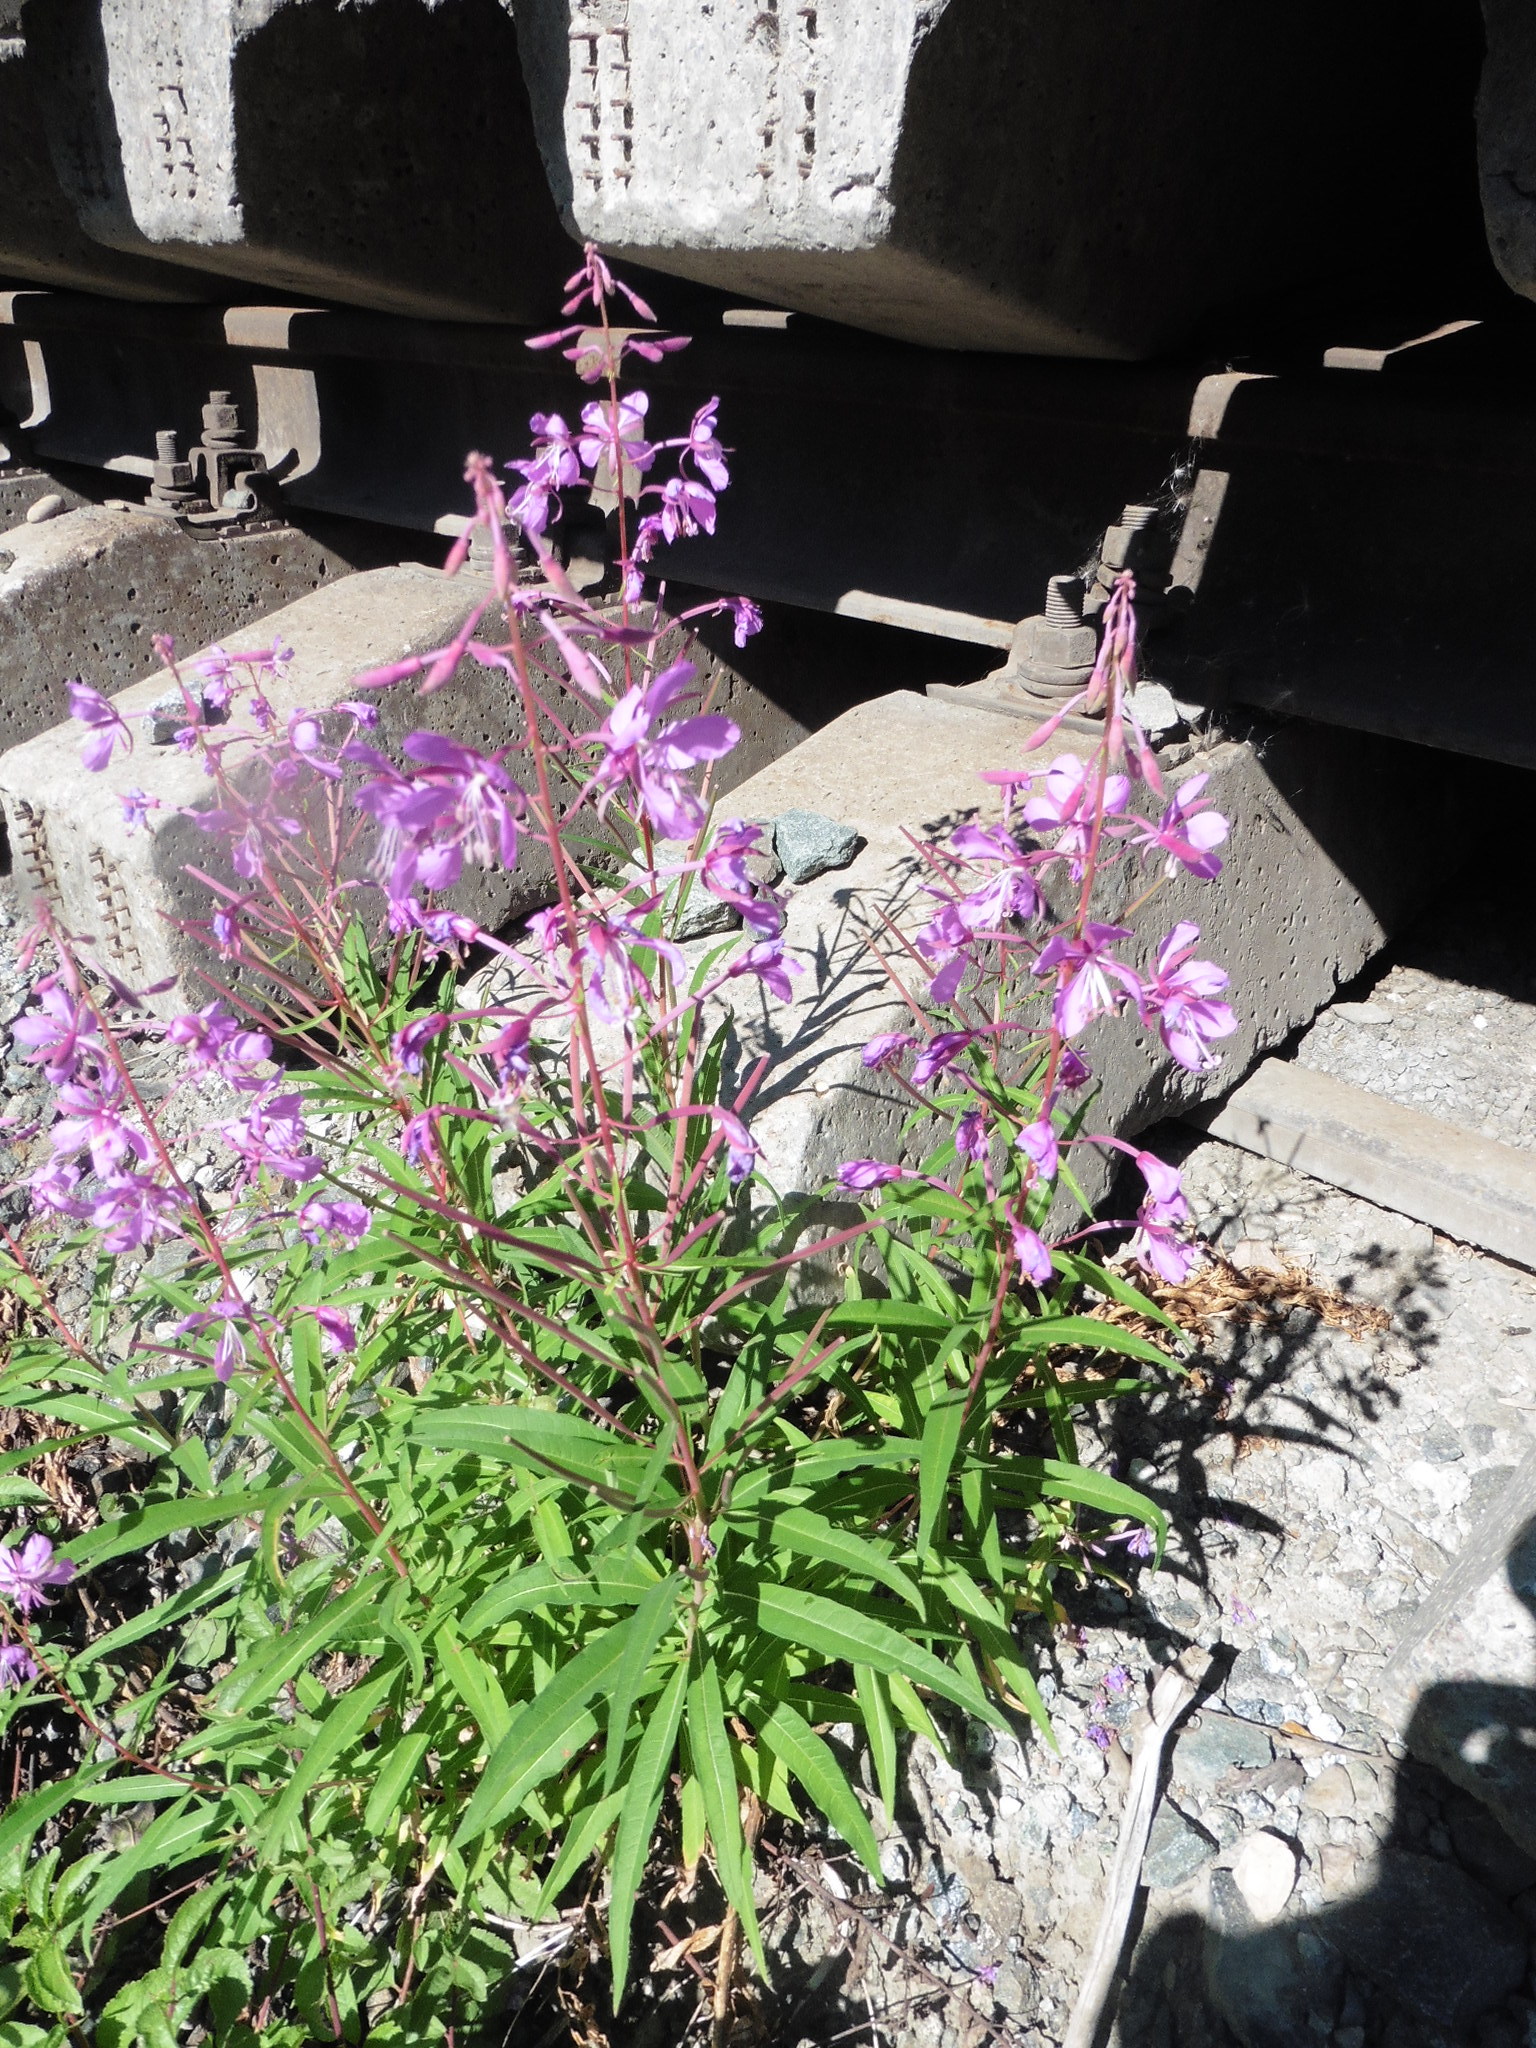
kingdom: Plantae
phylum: Tracheophyta
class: Magnoliopsida
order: Myrtales
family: Onagraceae
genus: Chamaenerion
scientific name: Chamaenerion angustifolium
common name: Fireweed
